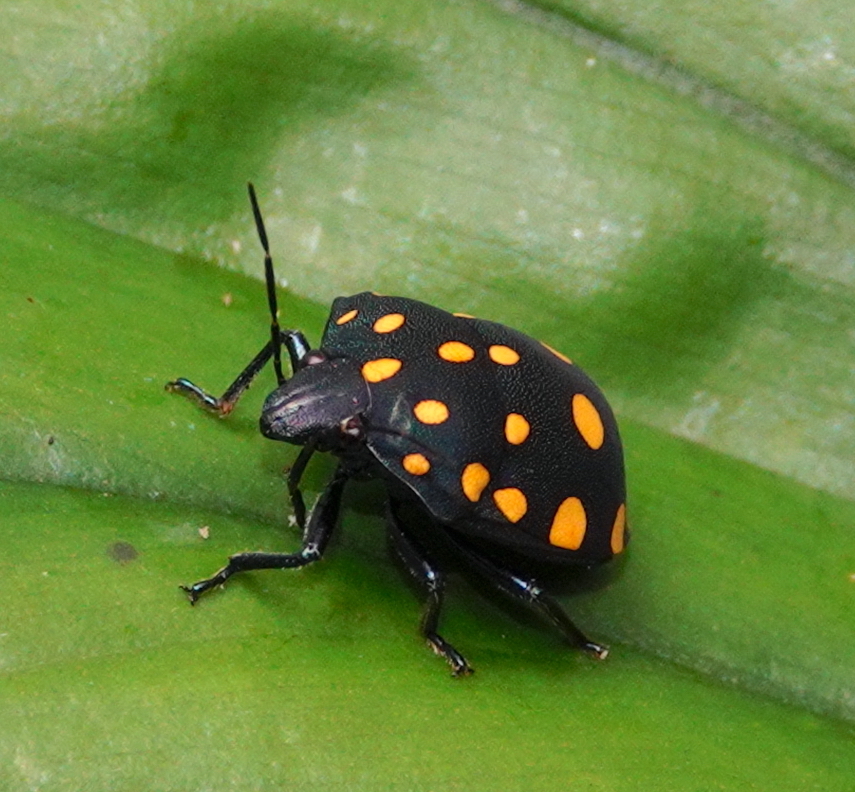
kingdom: Animalia
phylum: Arthropoda
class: Insecta
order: Hemiptera
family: Scutelleridae
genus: Pachycoris
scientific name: Pachycoris torridus
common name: Torrid jewel bug
